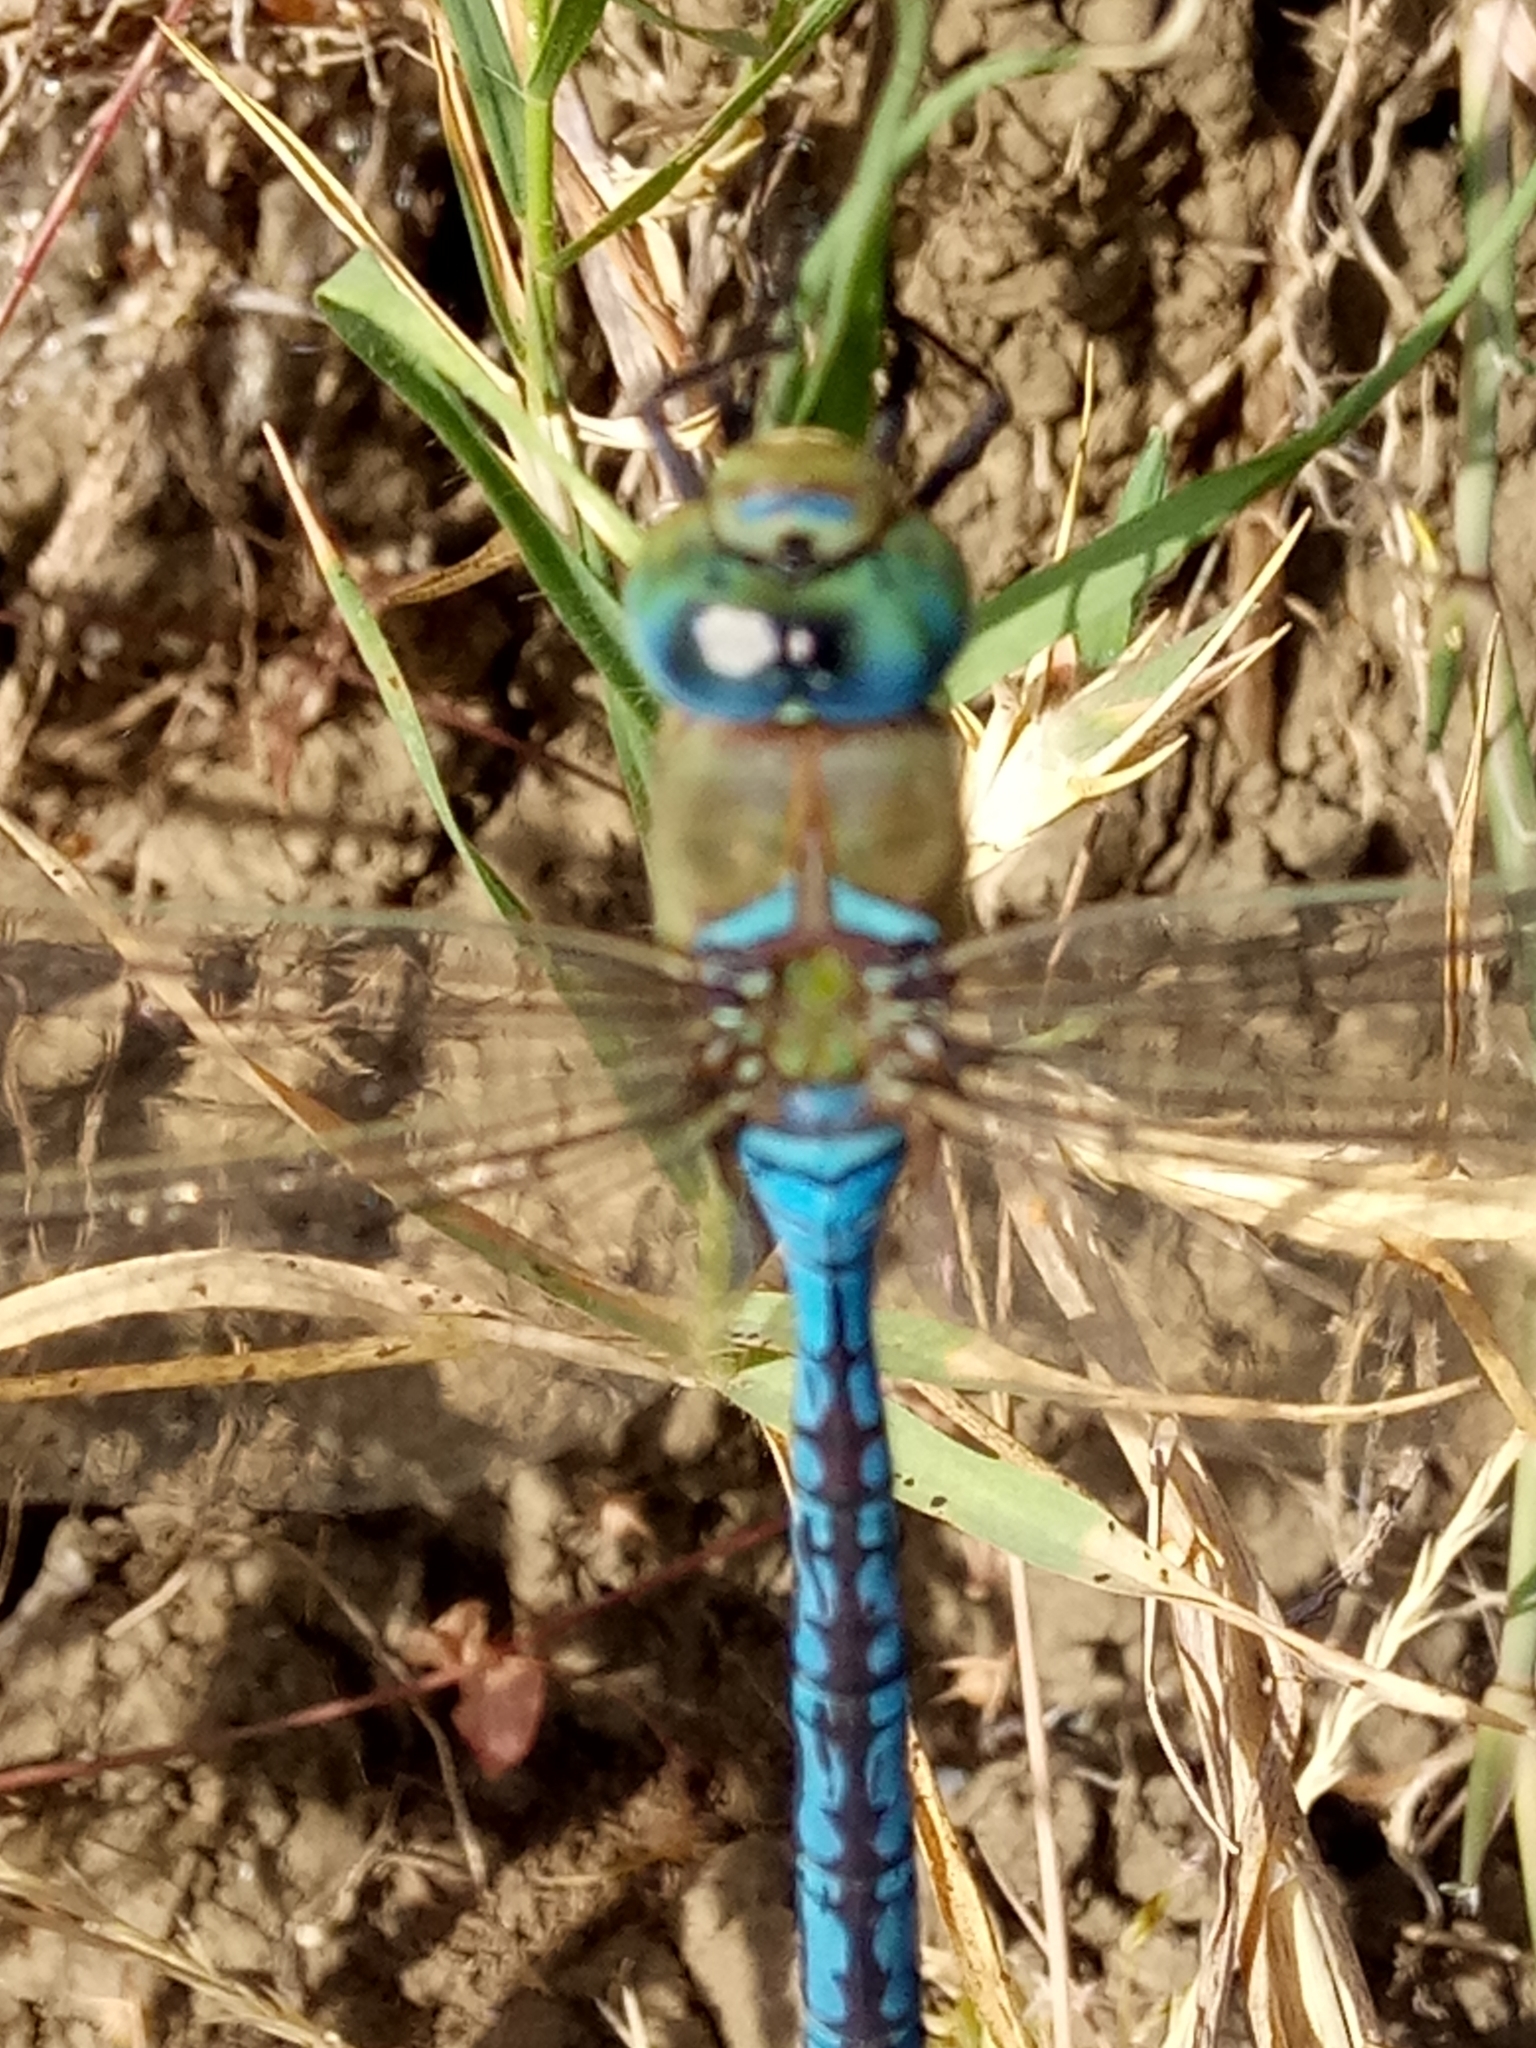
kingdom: Animalia
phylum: Arthropoda
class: Insecta
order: Odonata
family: Aeshnidae
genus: Anax
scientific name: Anax imperator
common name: Emperor dragonfly
